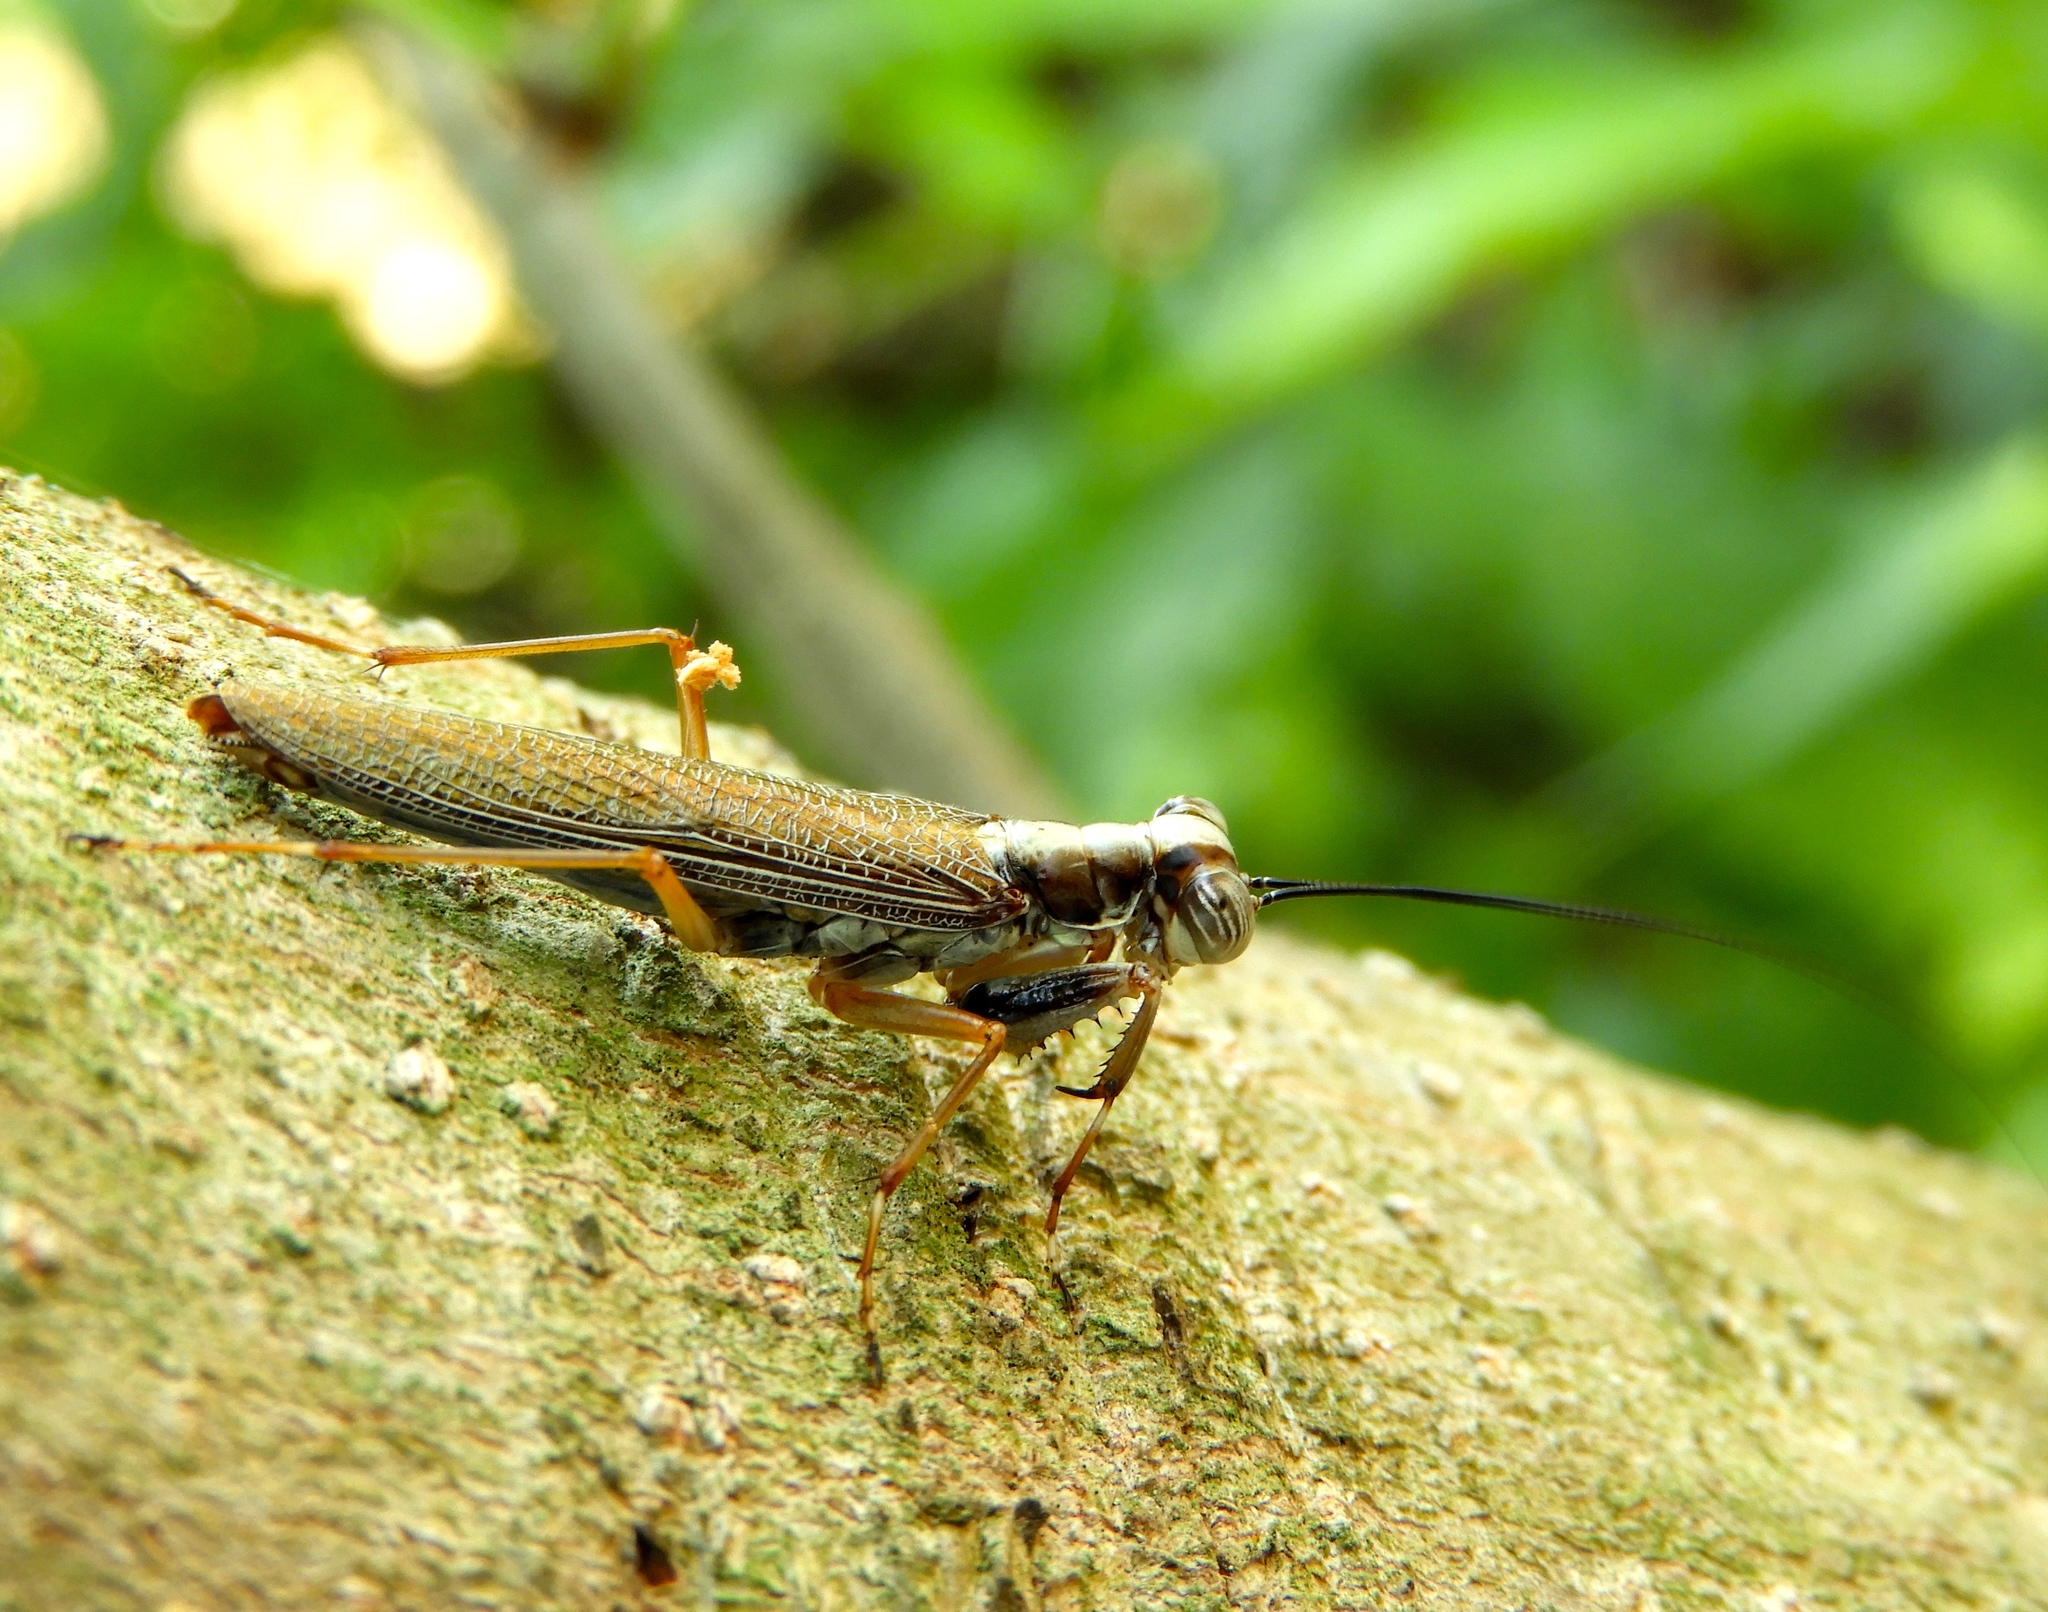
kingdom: Animalia
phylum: Arthropoda
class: Insecta
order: Mantodea
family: Mantoididae
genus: Mantoida
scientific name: Mantoida maya
